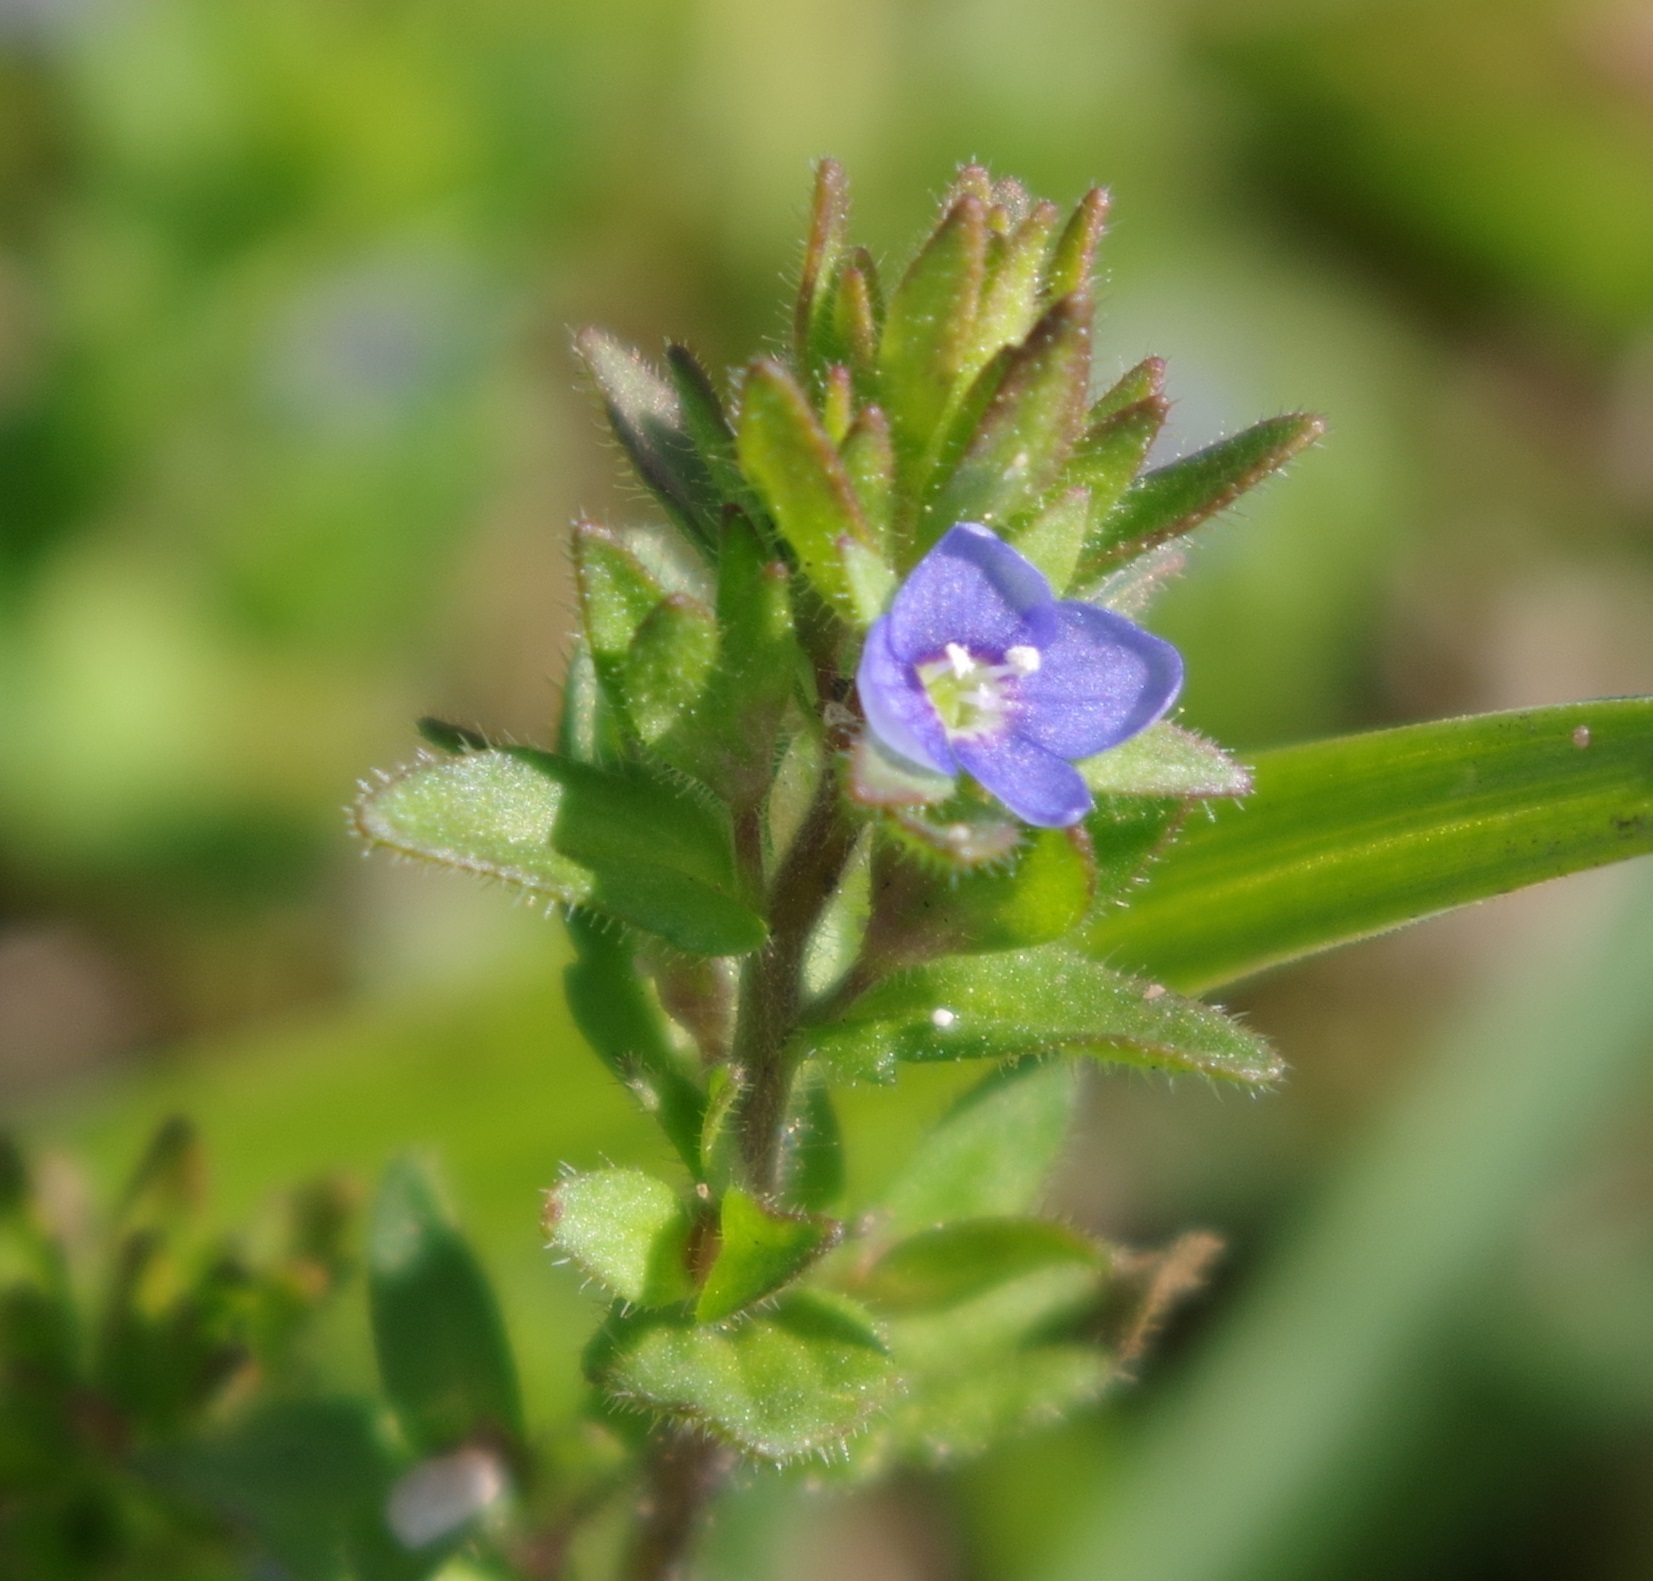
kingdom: Plantae
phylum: Tracheophyta
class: Magnoliopsida
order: Lamiales
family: Plantaginaceae
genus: Veronica
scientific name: Veronica arvensis
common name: Corn speedwell
